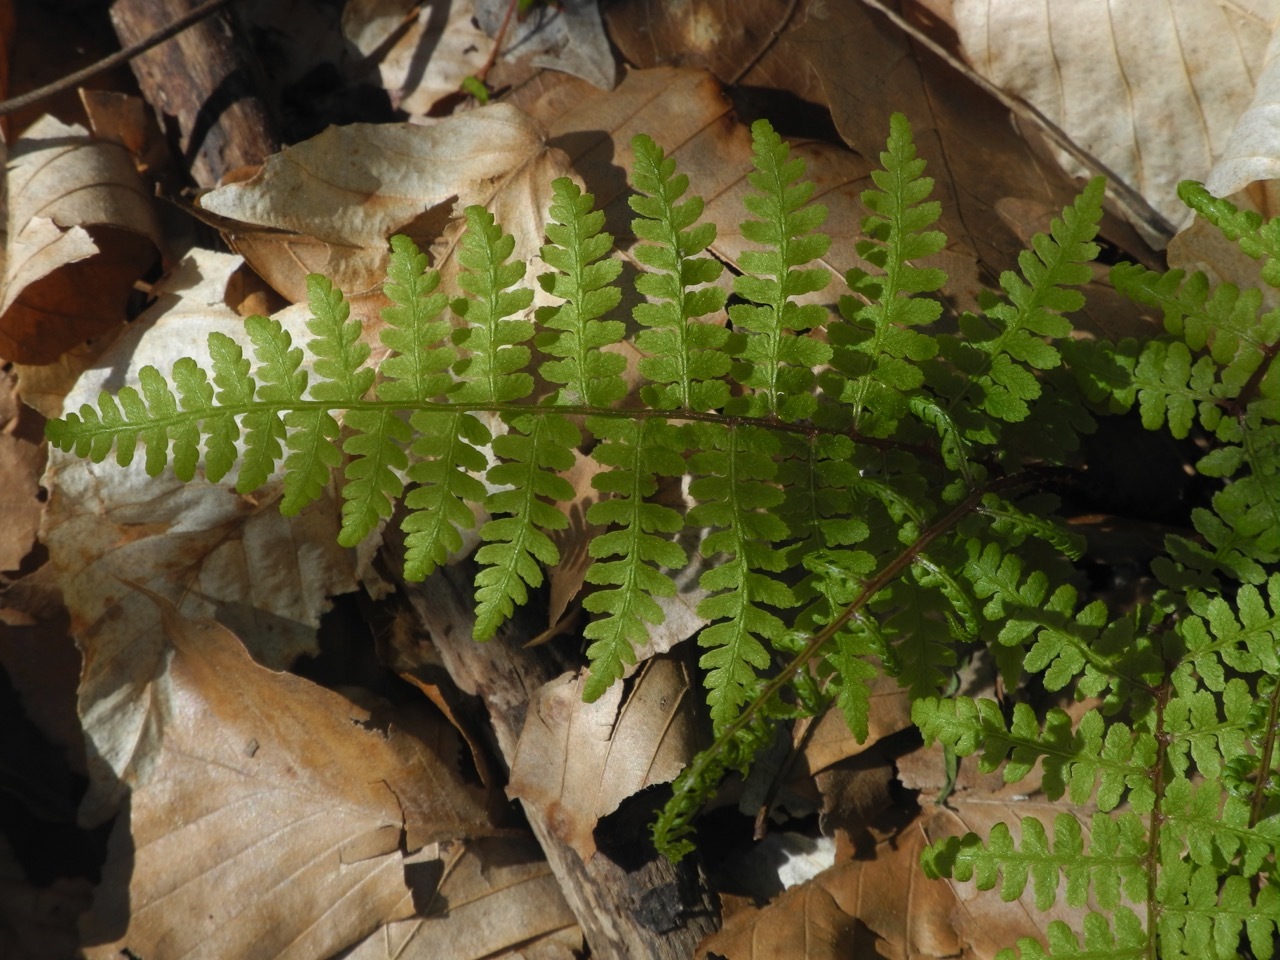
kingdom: Plantae
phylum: Tracheophyta
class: Polypodiopsida
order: Polypodiales
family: Athyriaceae
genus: Athyrium
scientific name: Athyrium asplenioides
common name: Southern lady fern
